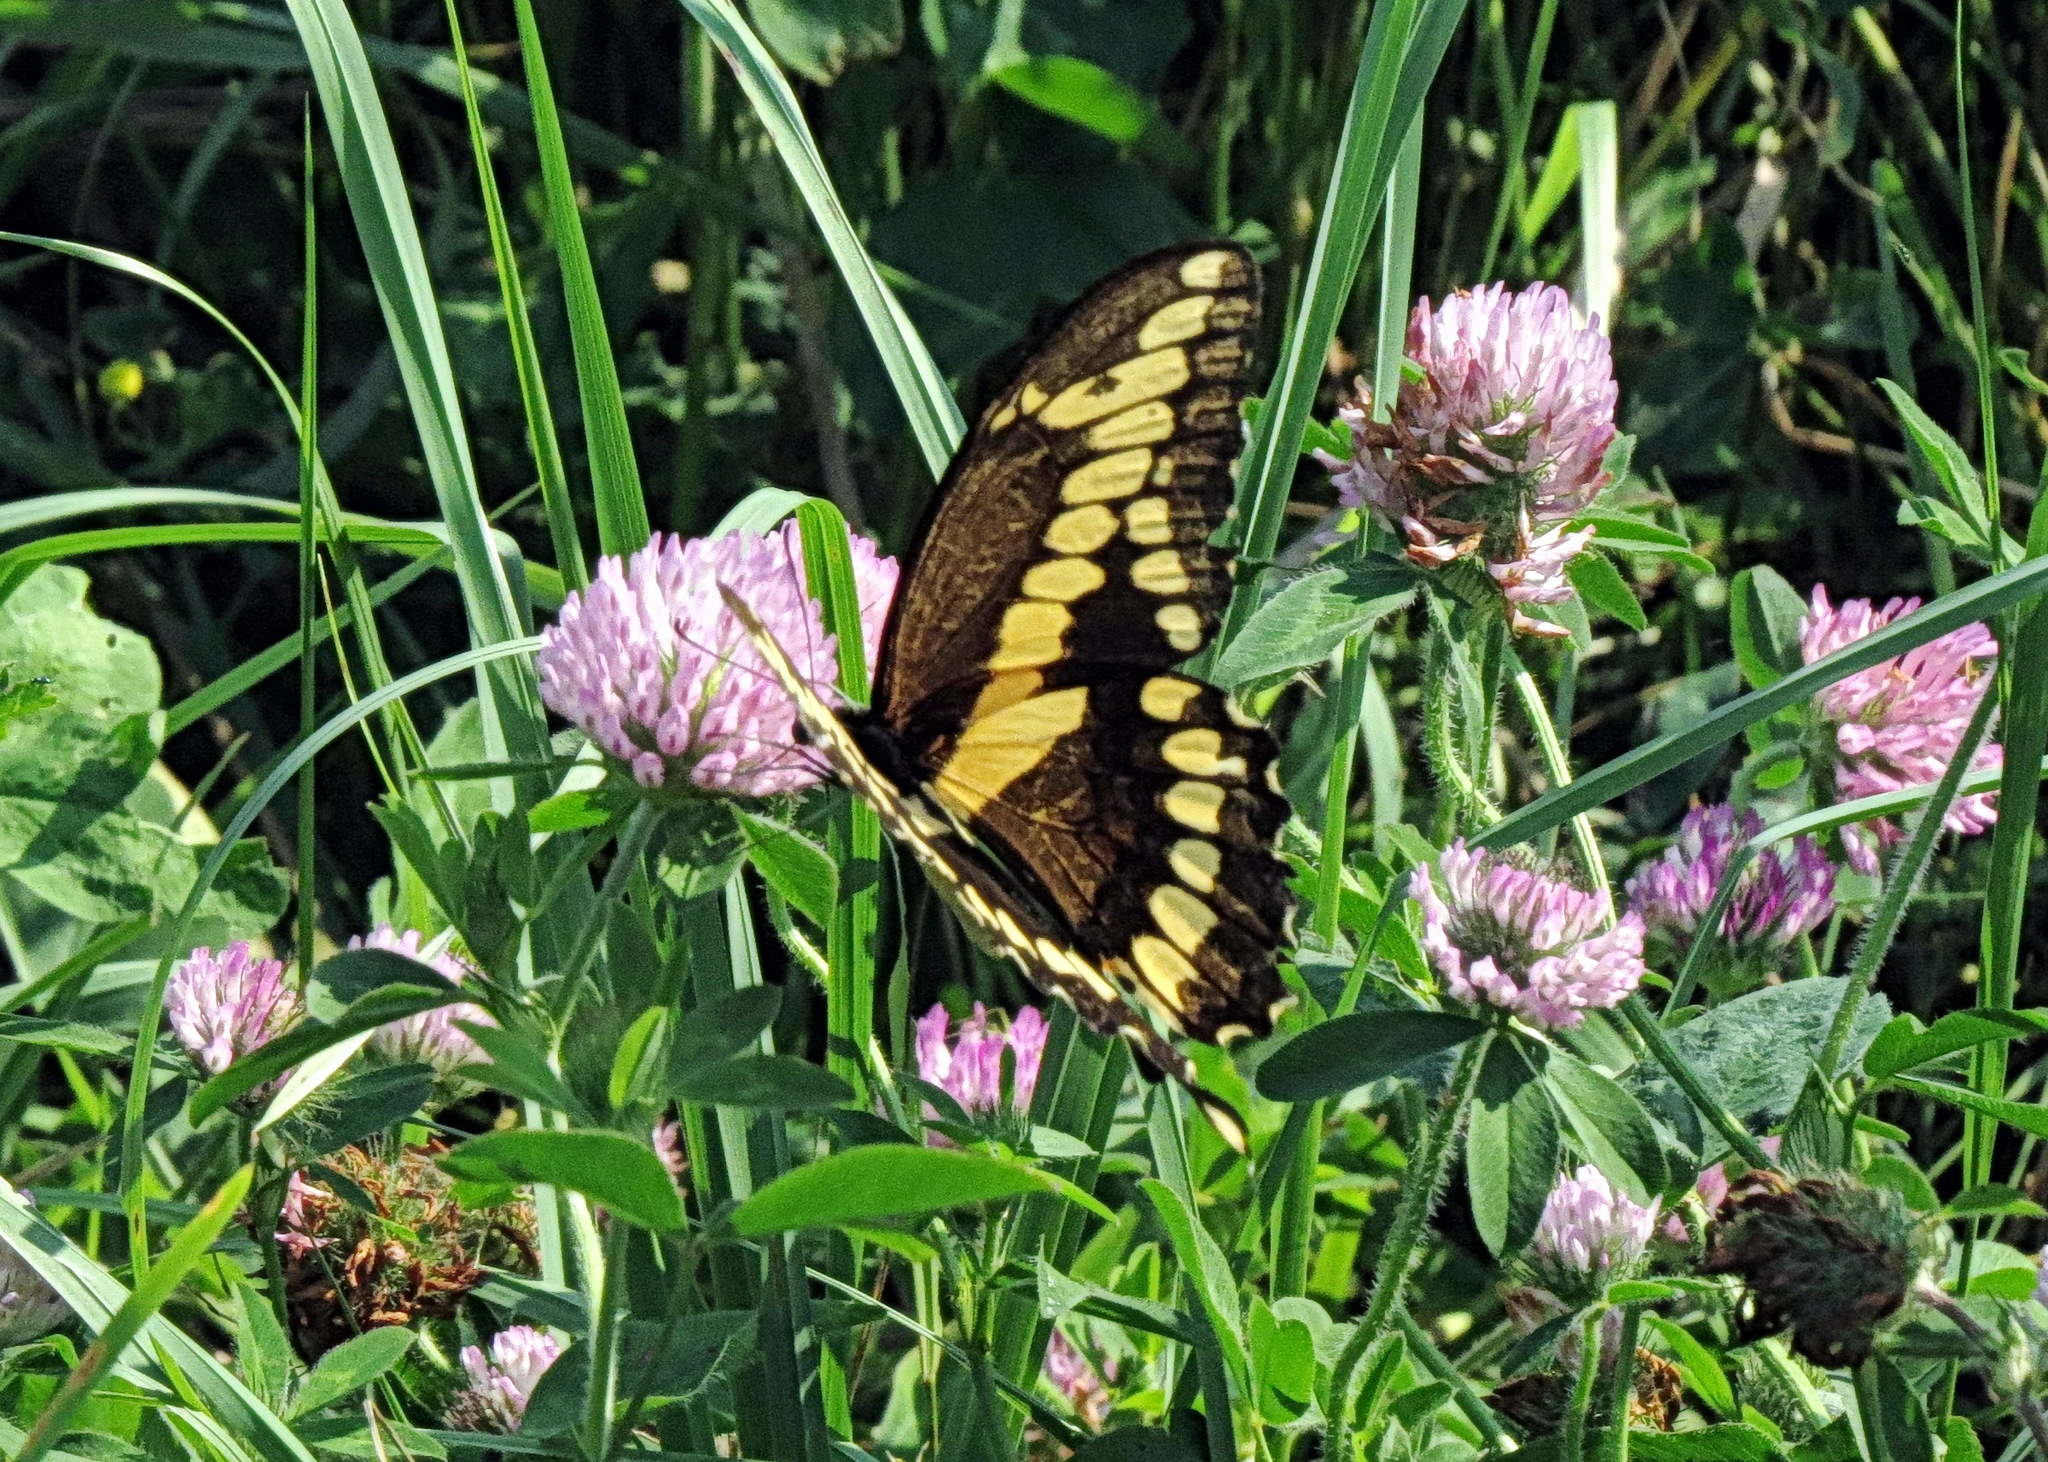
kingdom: Animalia
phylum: Arthropoda
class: Insecta
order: Lepidoptera
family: Papilionidae
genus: Papilio
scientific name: Papilio cresphontes
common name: Giant swallowtail
